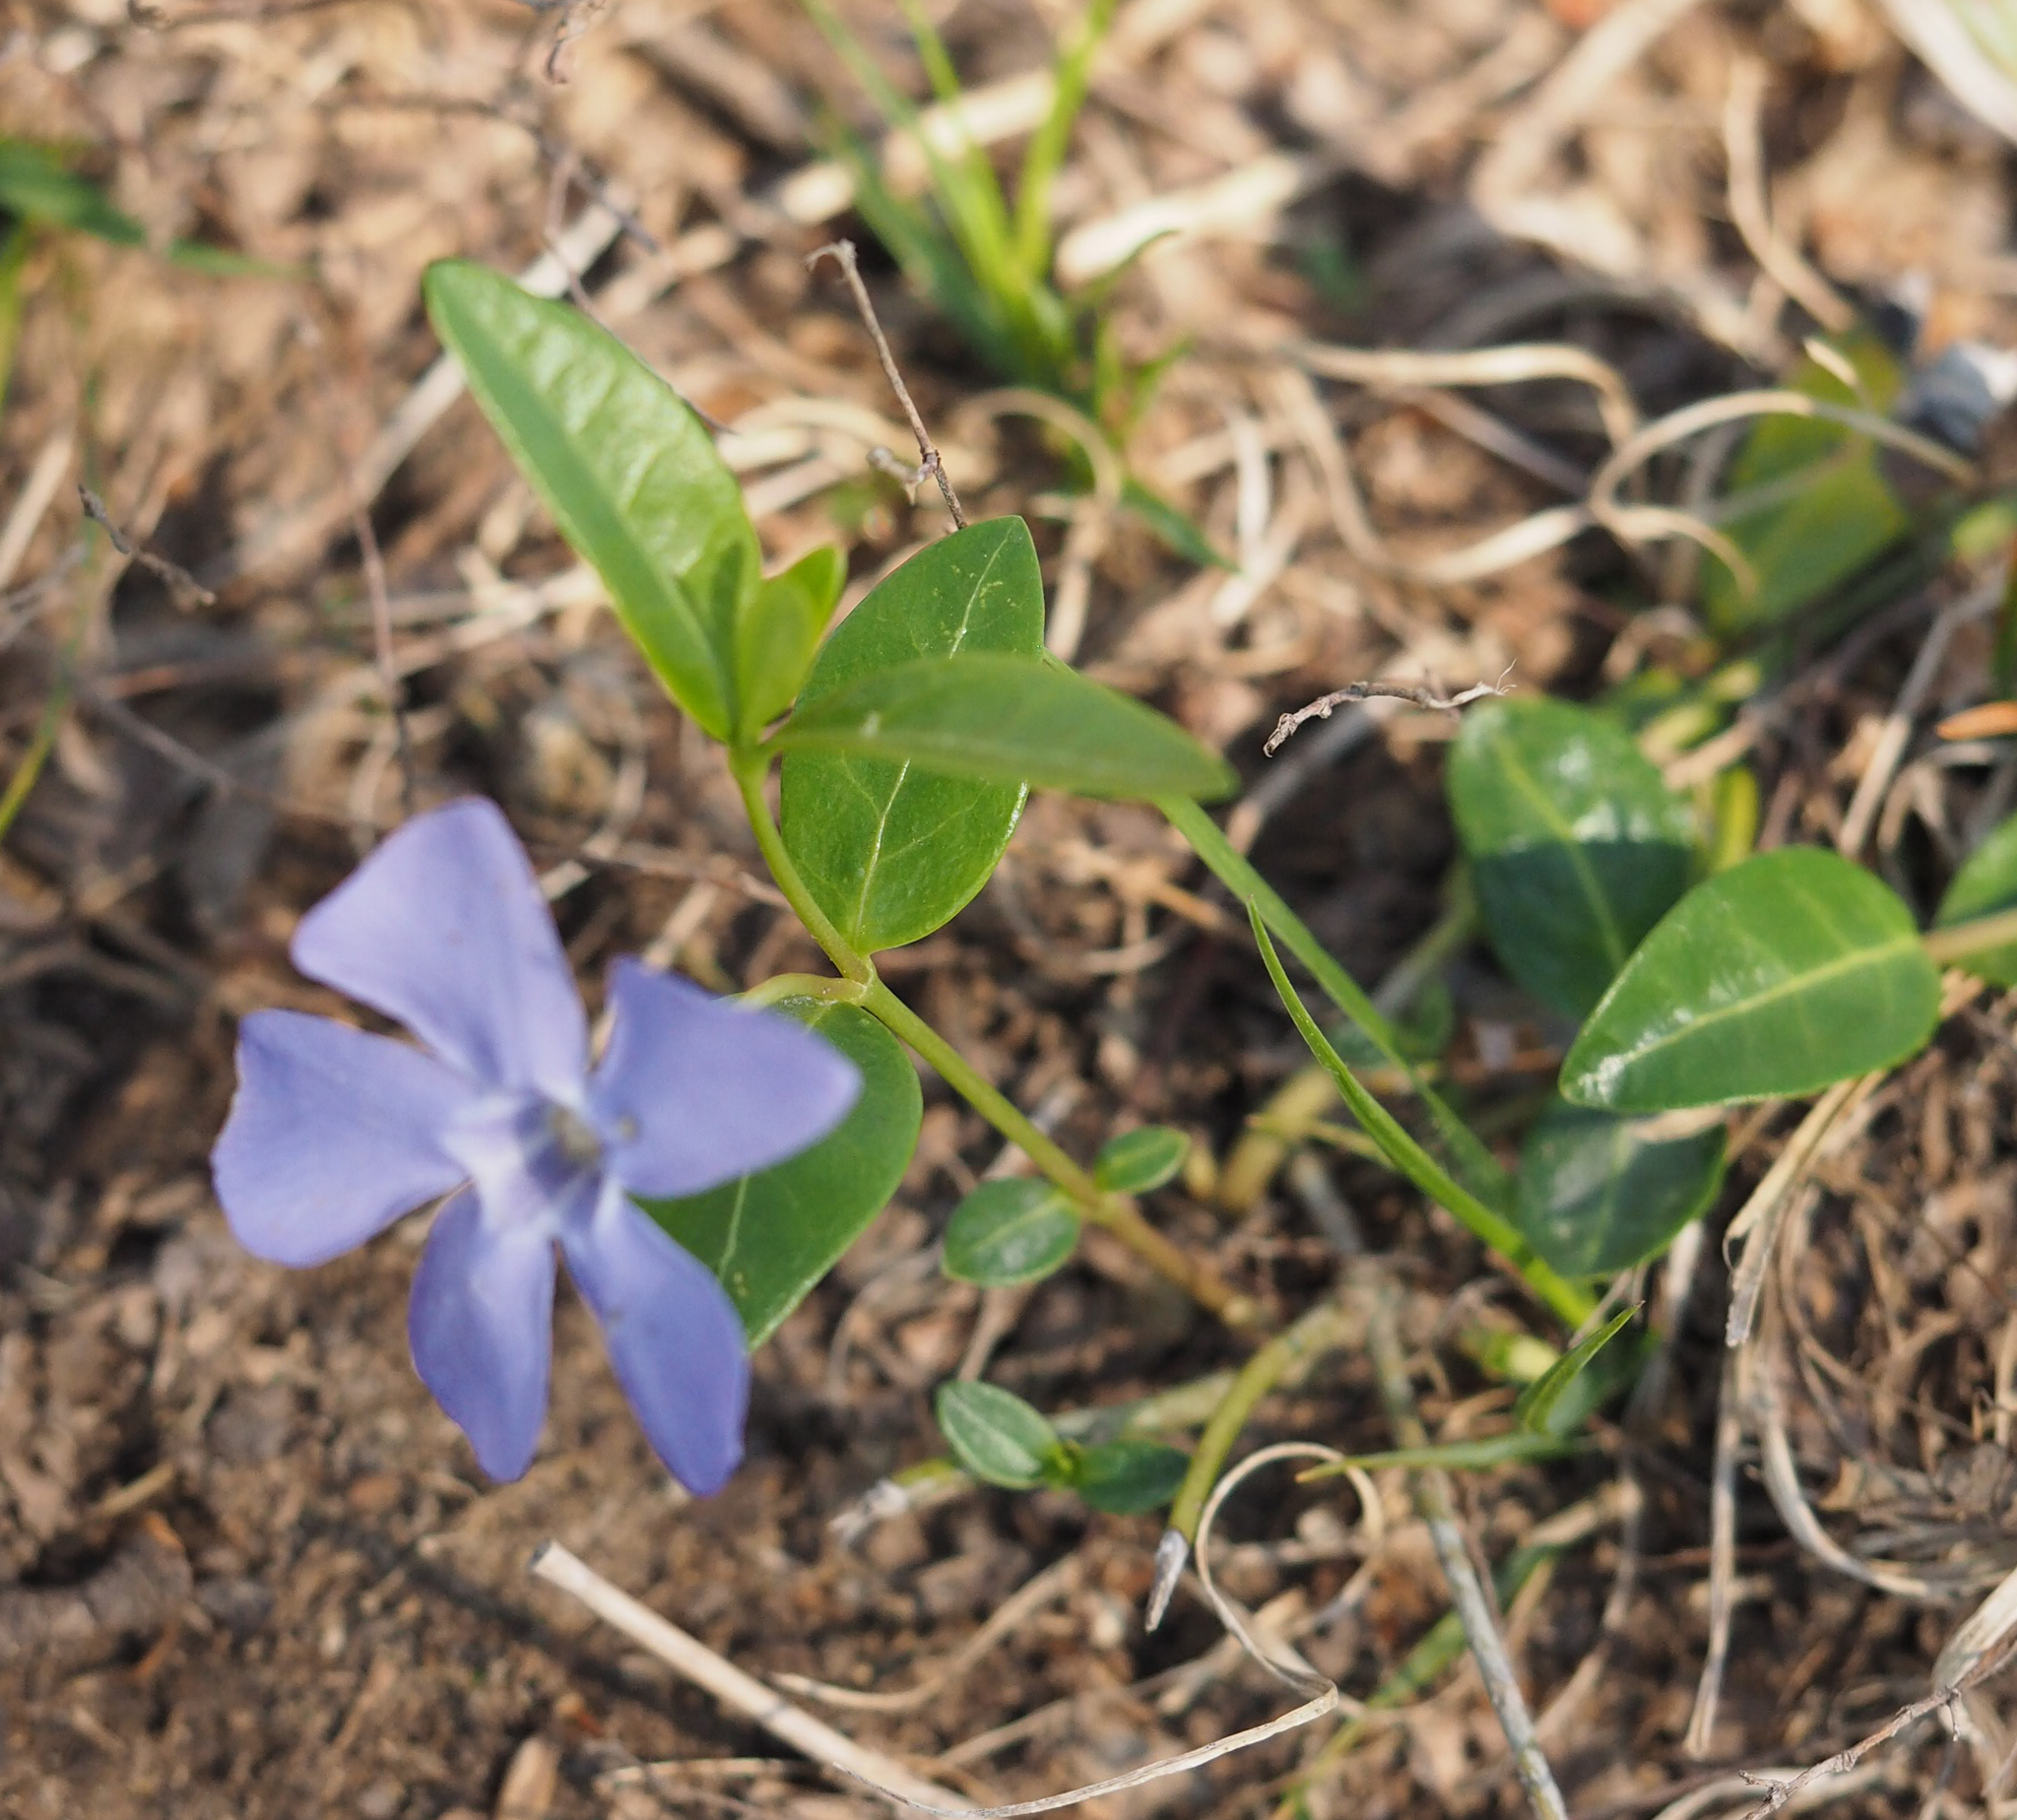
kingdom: Plantae
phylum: Tracheophyta
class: Magnoliopsida
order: Gentianales
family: Apocynaceae
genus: Vinca
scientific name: Vinca minor
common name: Lesser periwinkle
